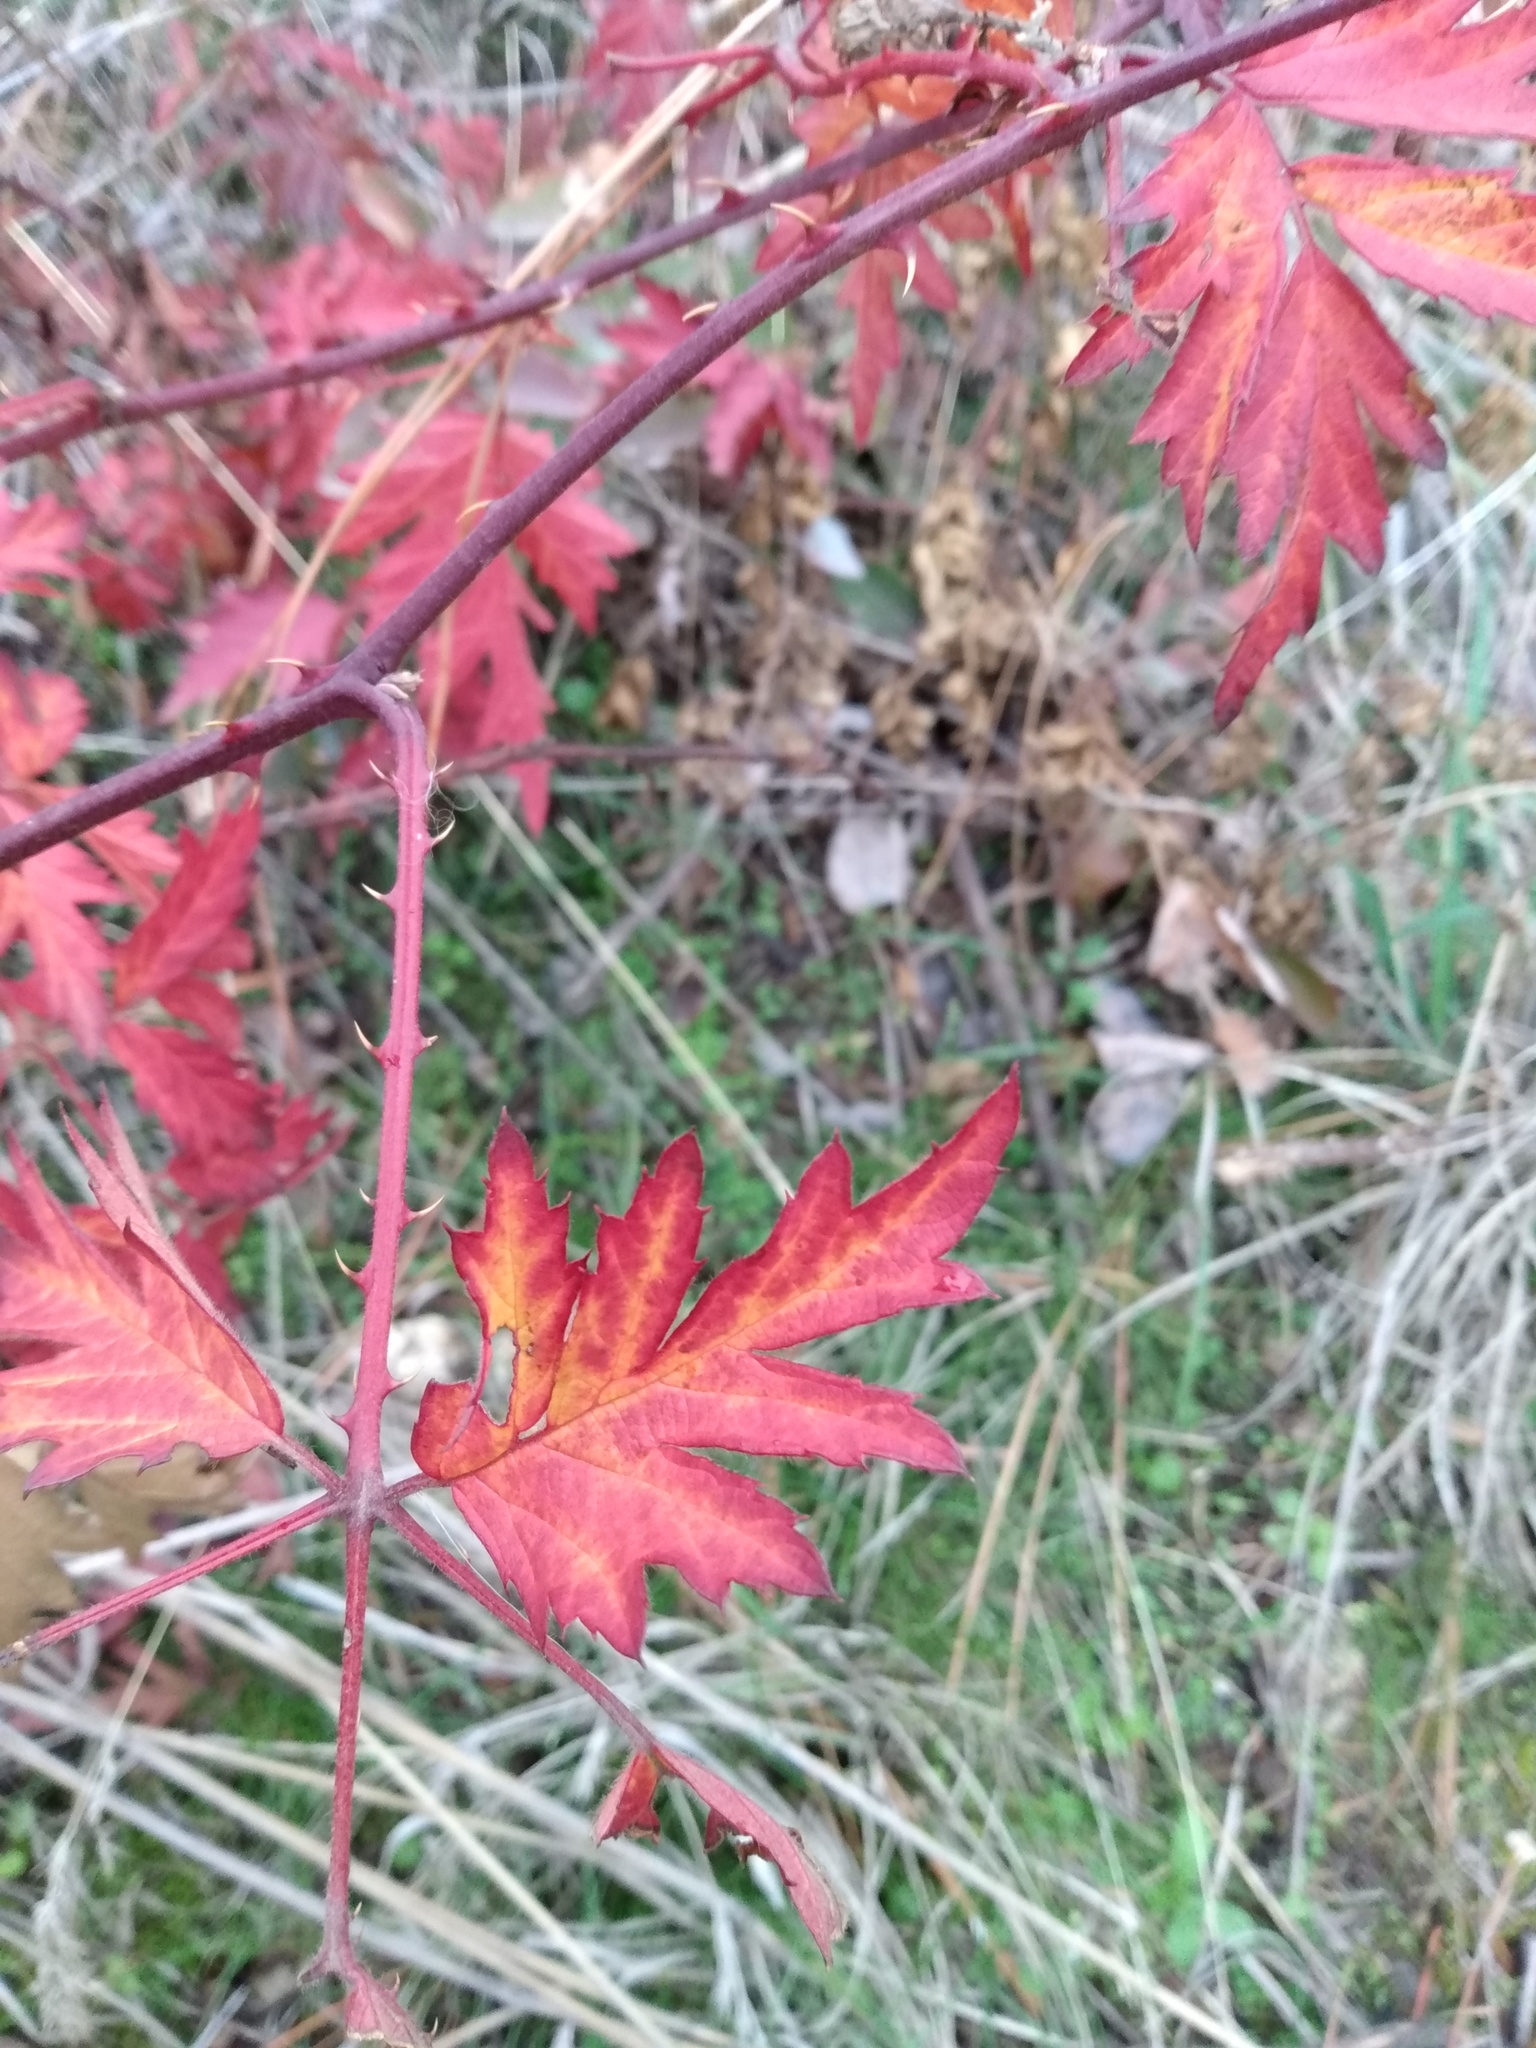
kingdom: Plantae
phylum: Tracheophyta
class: Magnoliopsida
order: Rosales
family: Rosaceae
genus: Rubus
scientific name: Rubus laciniatus
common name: Evergreen blackberry
